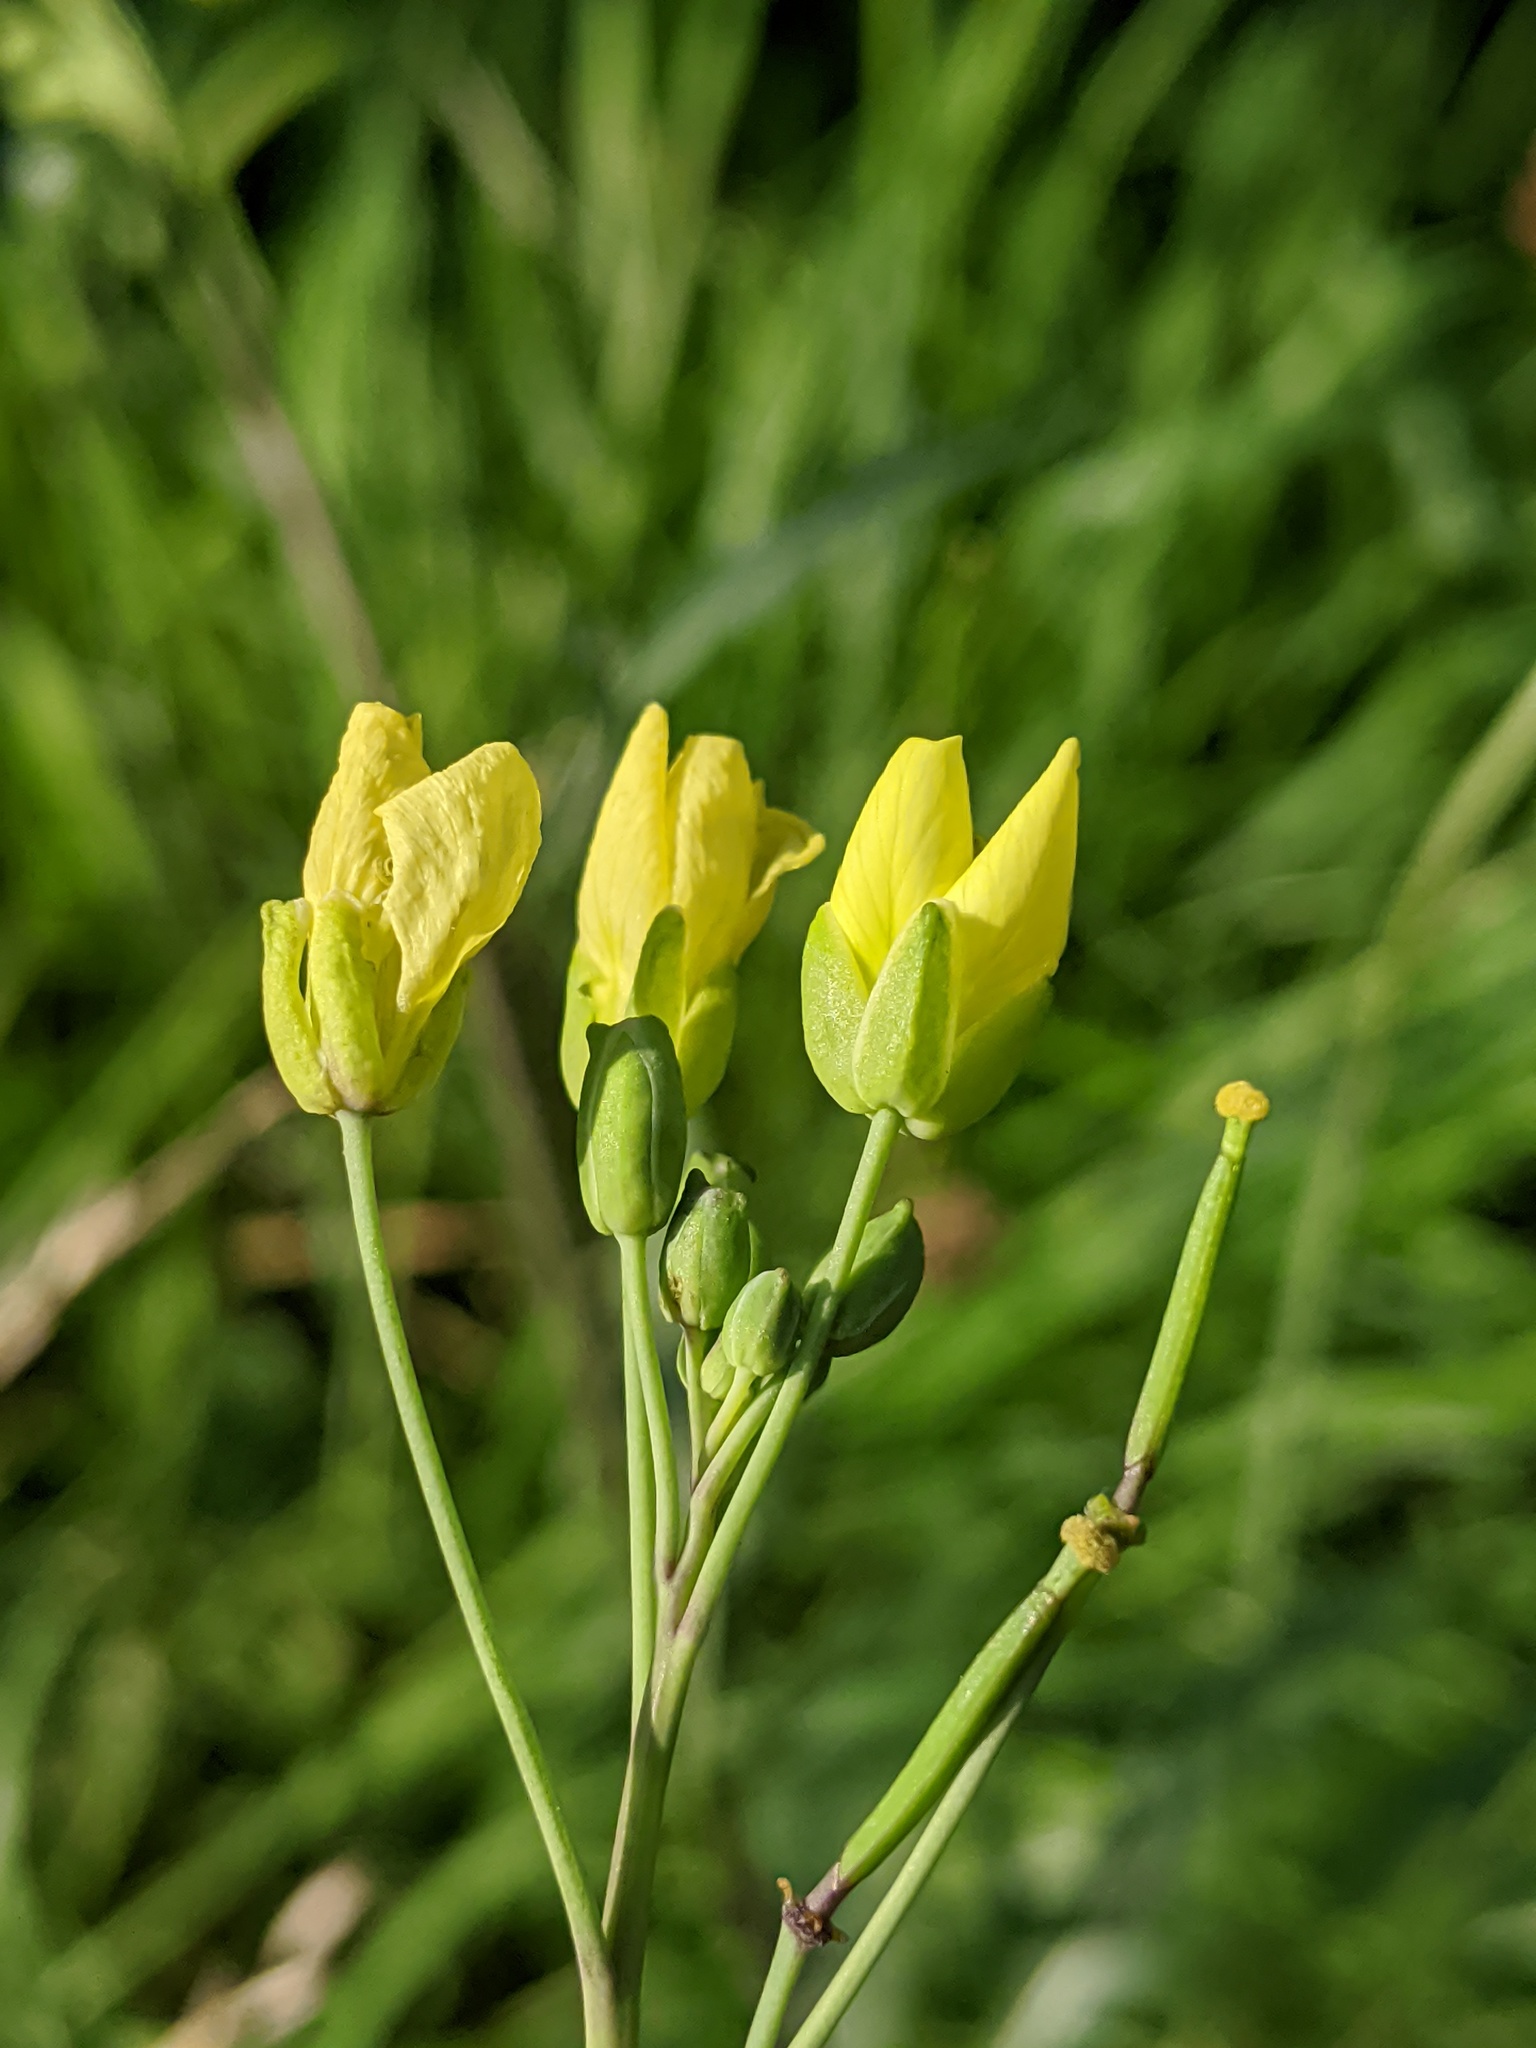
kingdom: Plantae
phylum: Tracheophyta
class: Magnoliopsida
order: Brassicales
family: Brassicaceae
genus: Diplotaxis
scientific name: Diplotaxis tenuifolia
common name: Perennial wall-rocket
